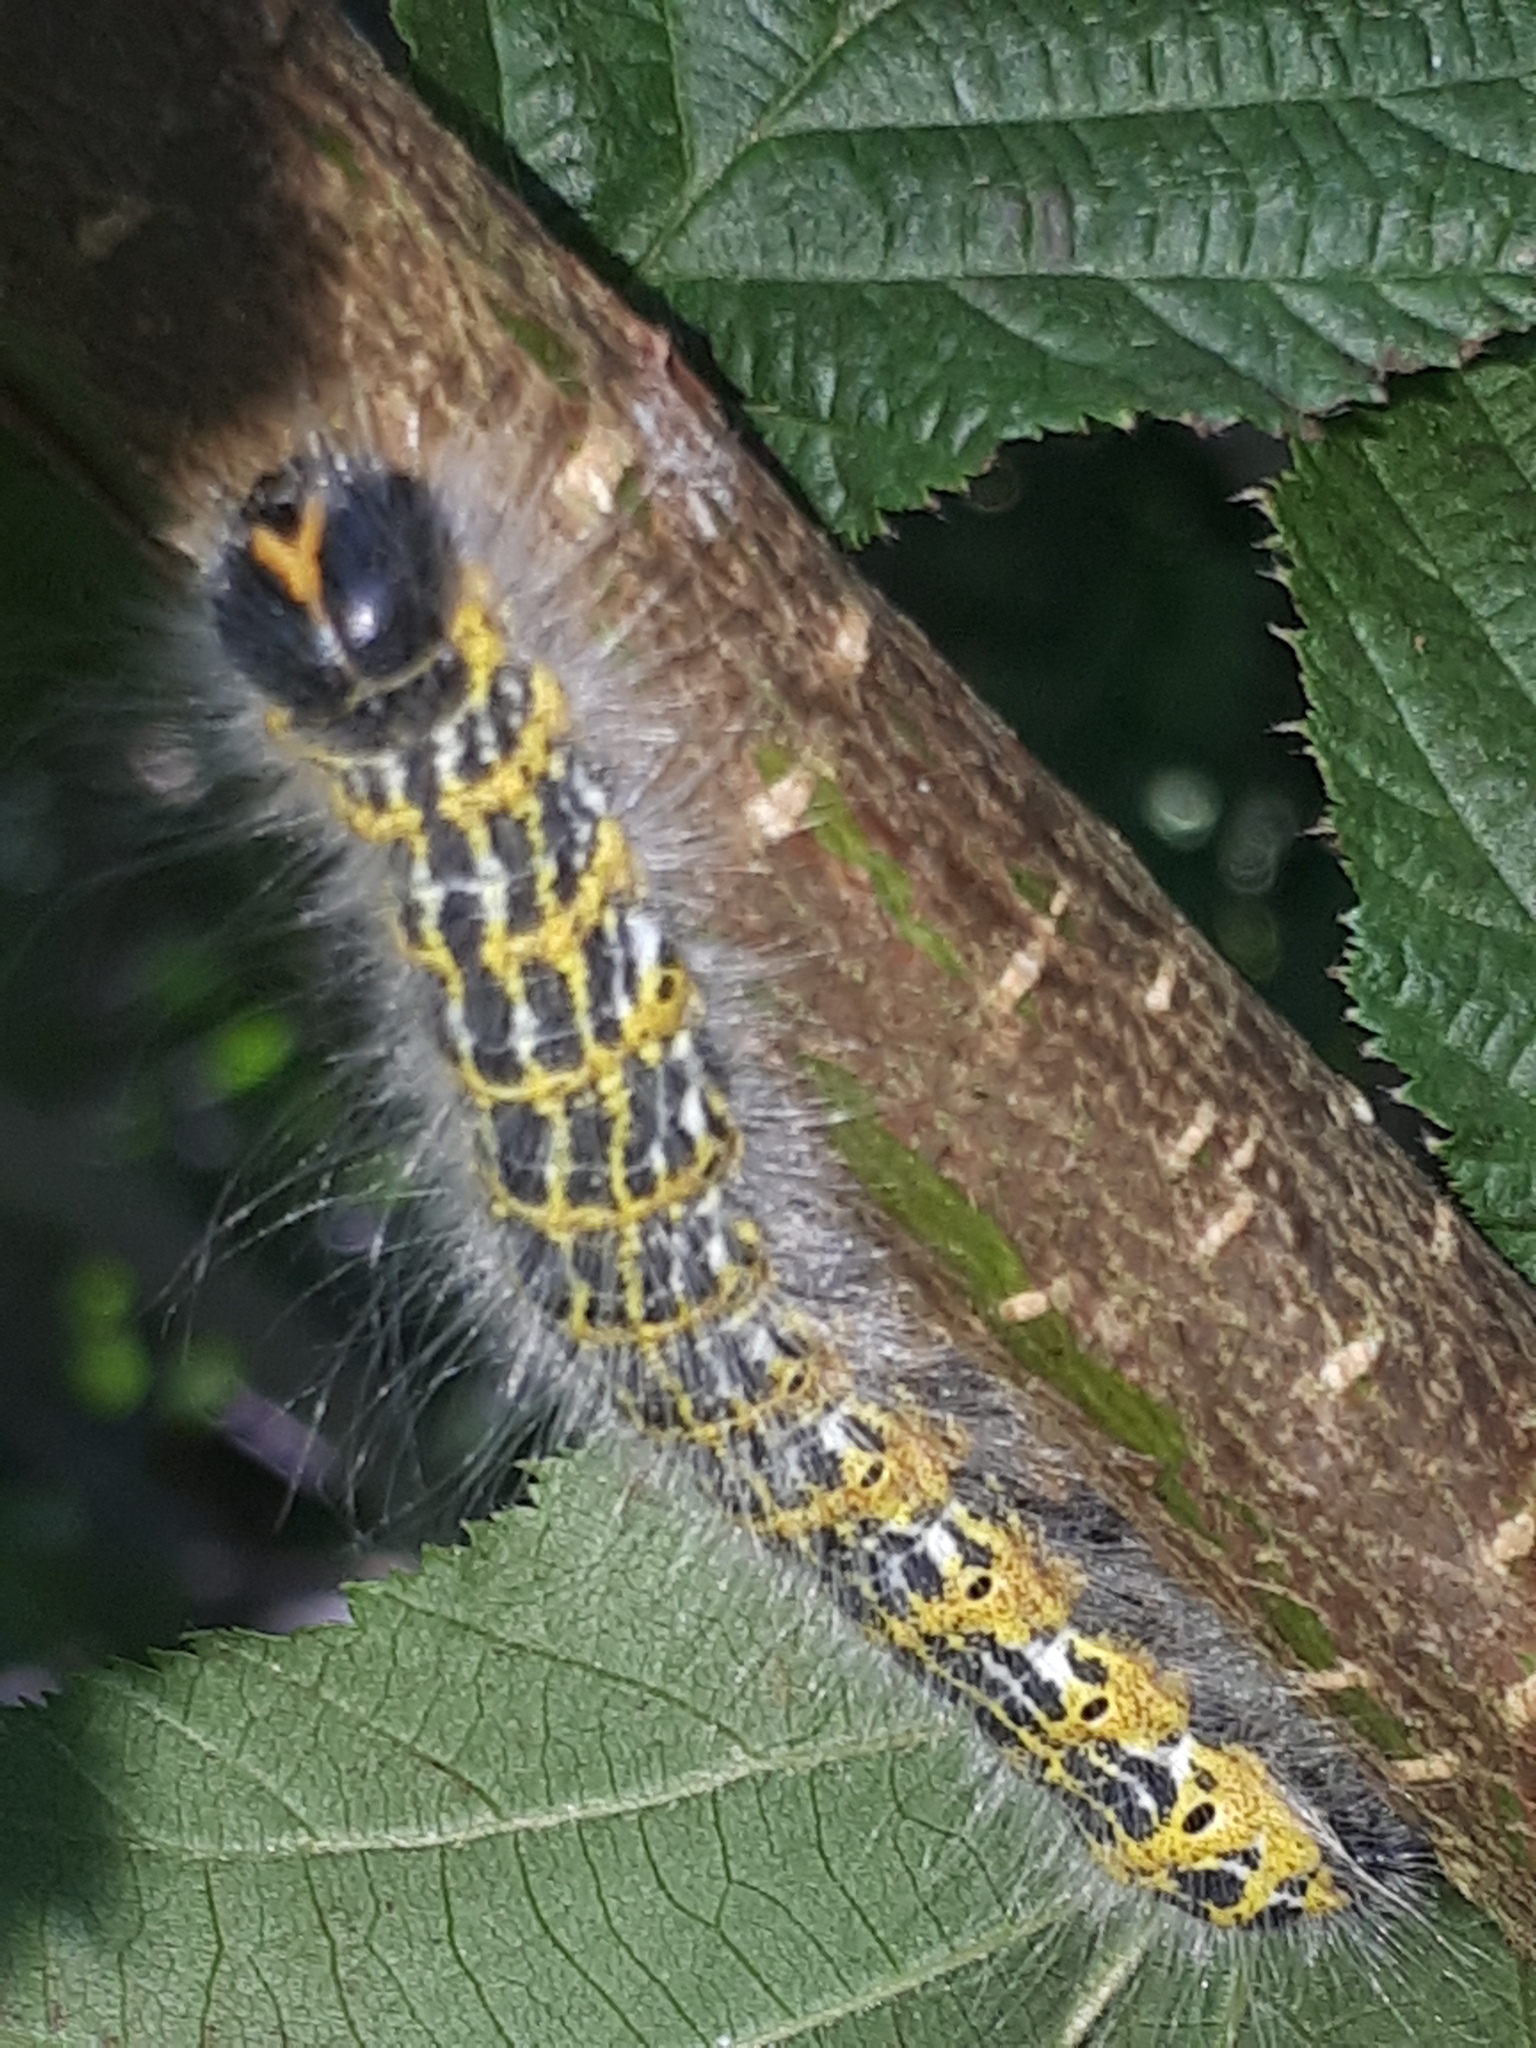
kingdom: Animalia
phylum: Arthropoda
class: Insecta
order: Lepidoptera
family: Notodontidae
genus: Phalera
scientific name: Phalera bucephala
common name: Buff-tip
